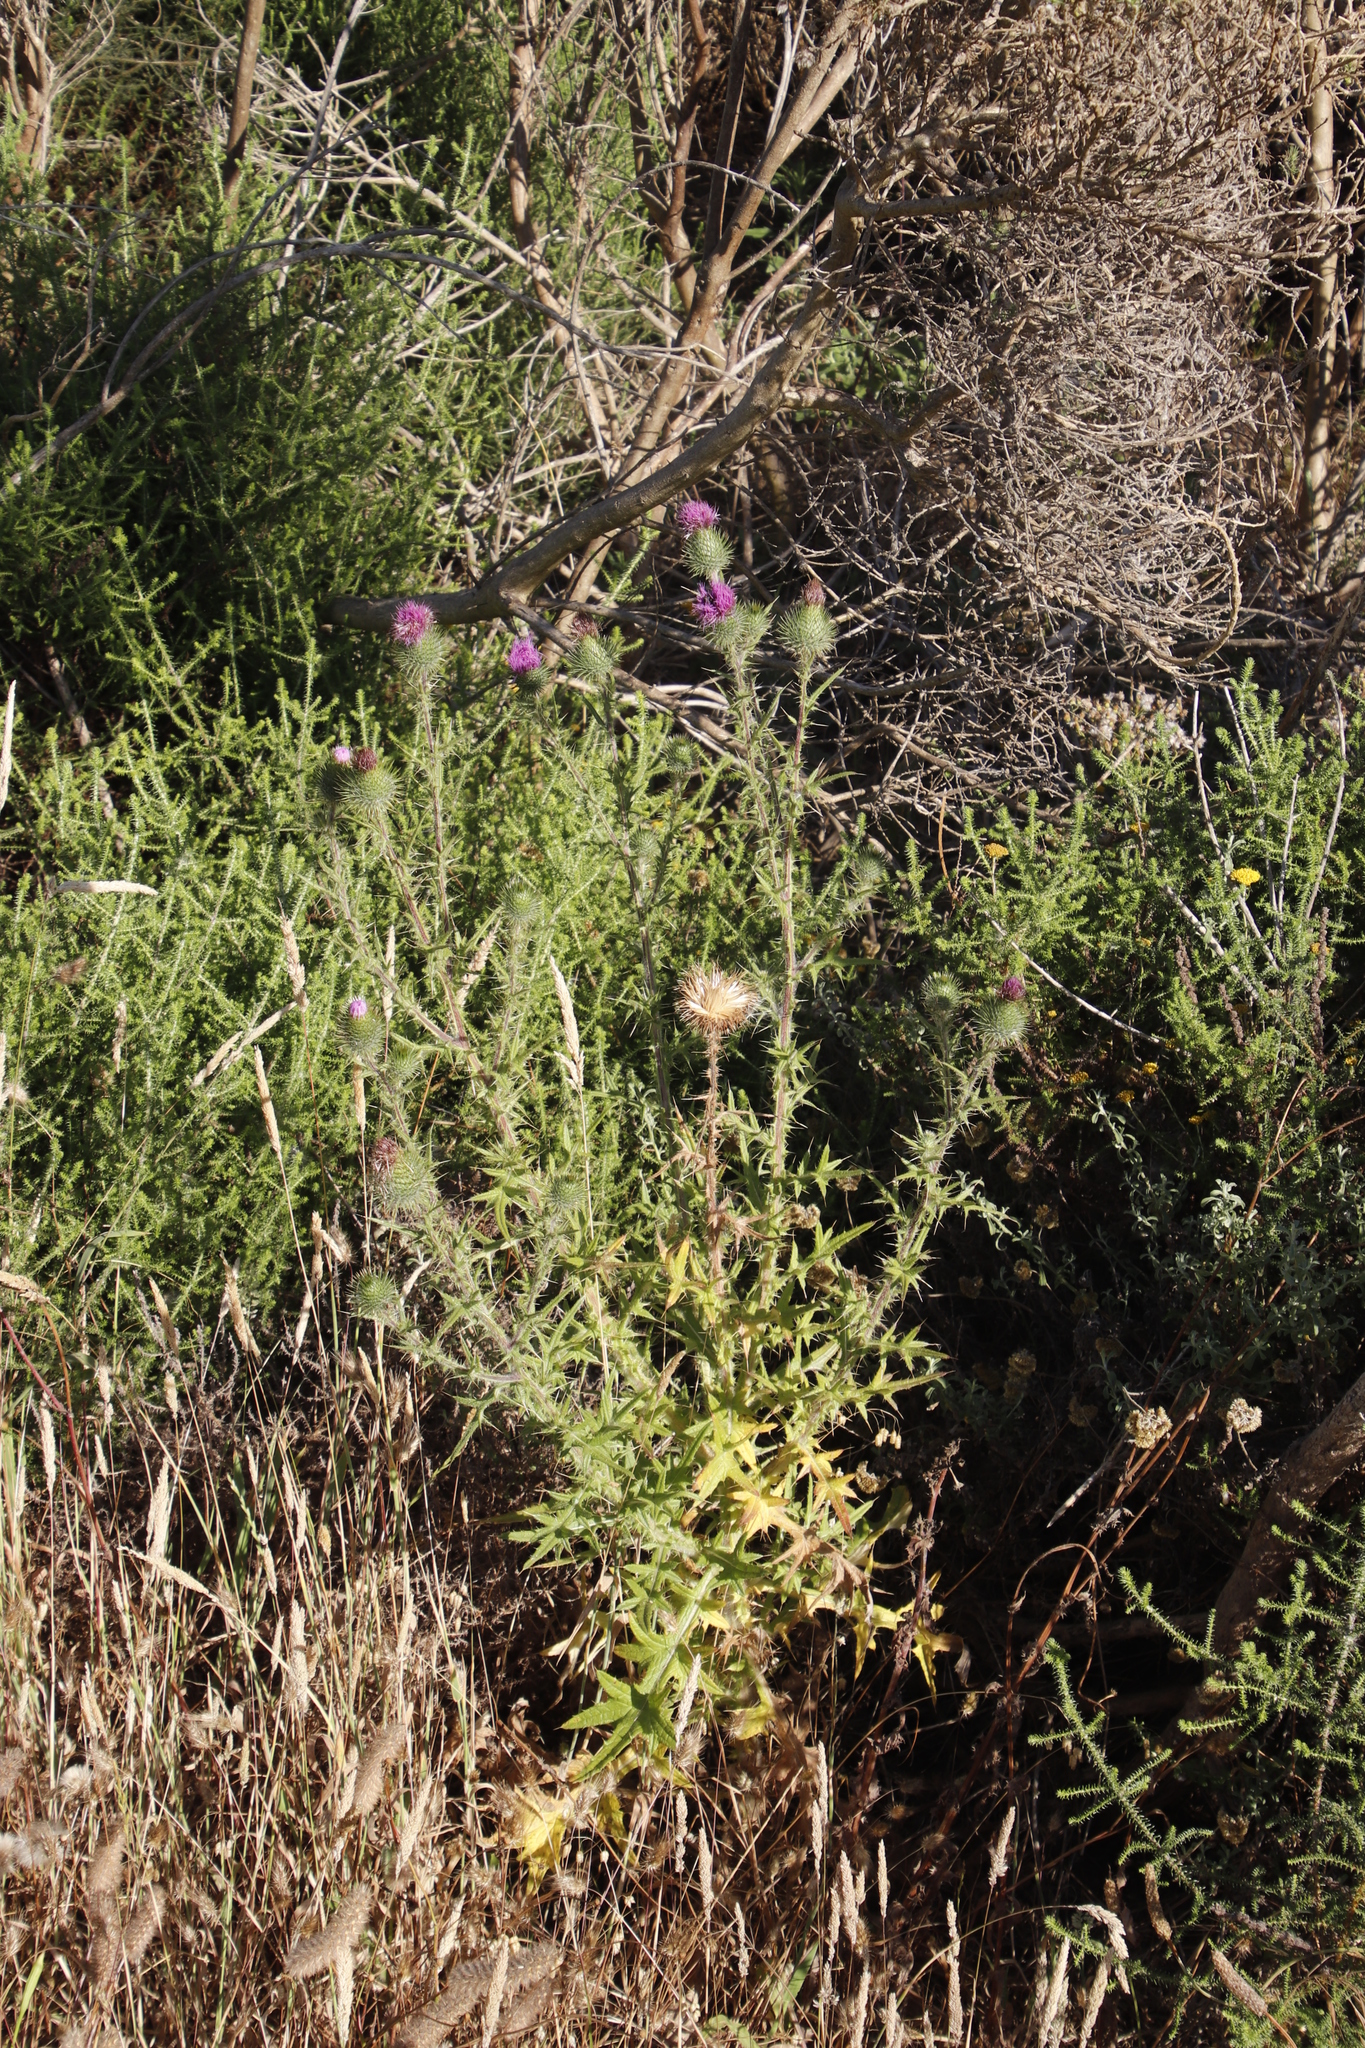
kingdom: Plantae
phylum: Tracheophyta
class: Magnoliopsida
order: Asterales
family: Asteraceae
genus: Cirsium
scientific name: Cirsium vulgare
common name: Bull thistle
